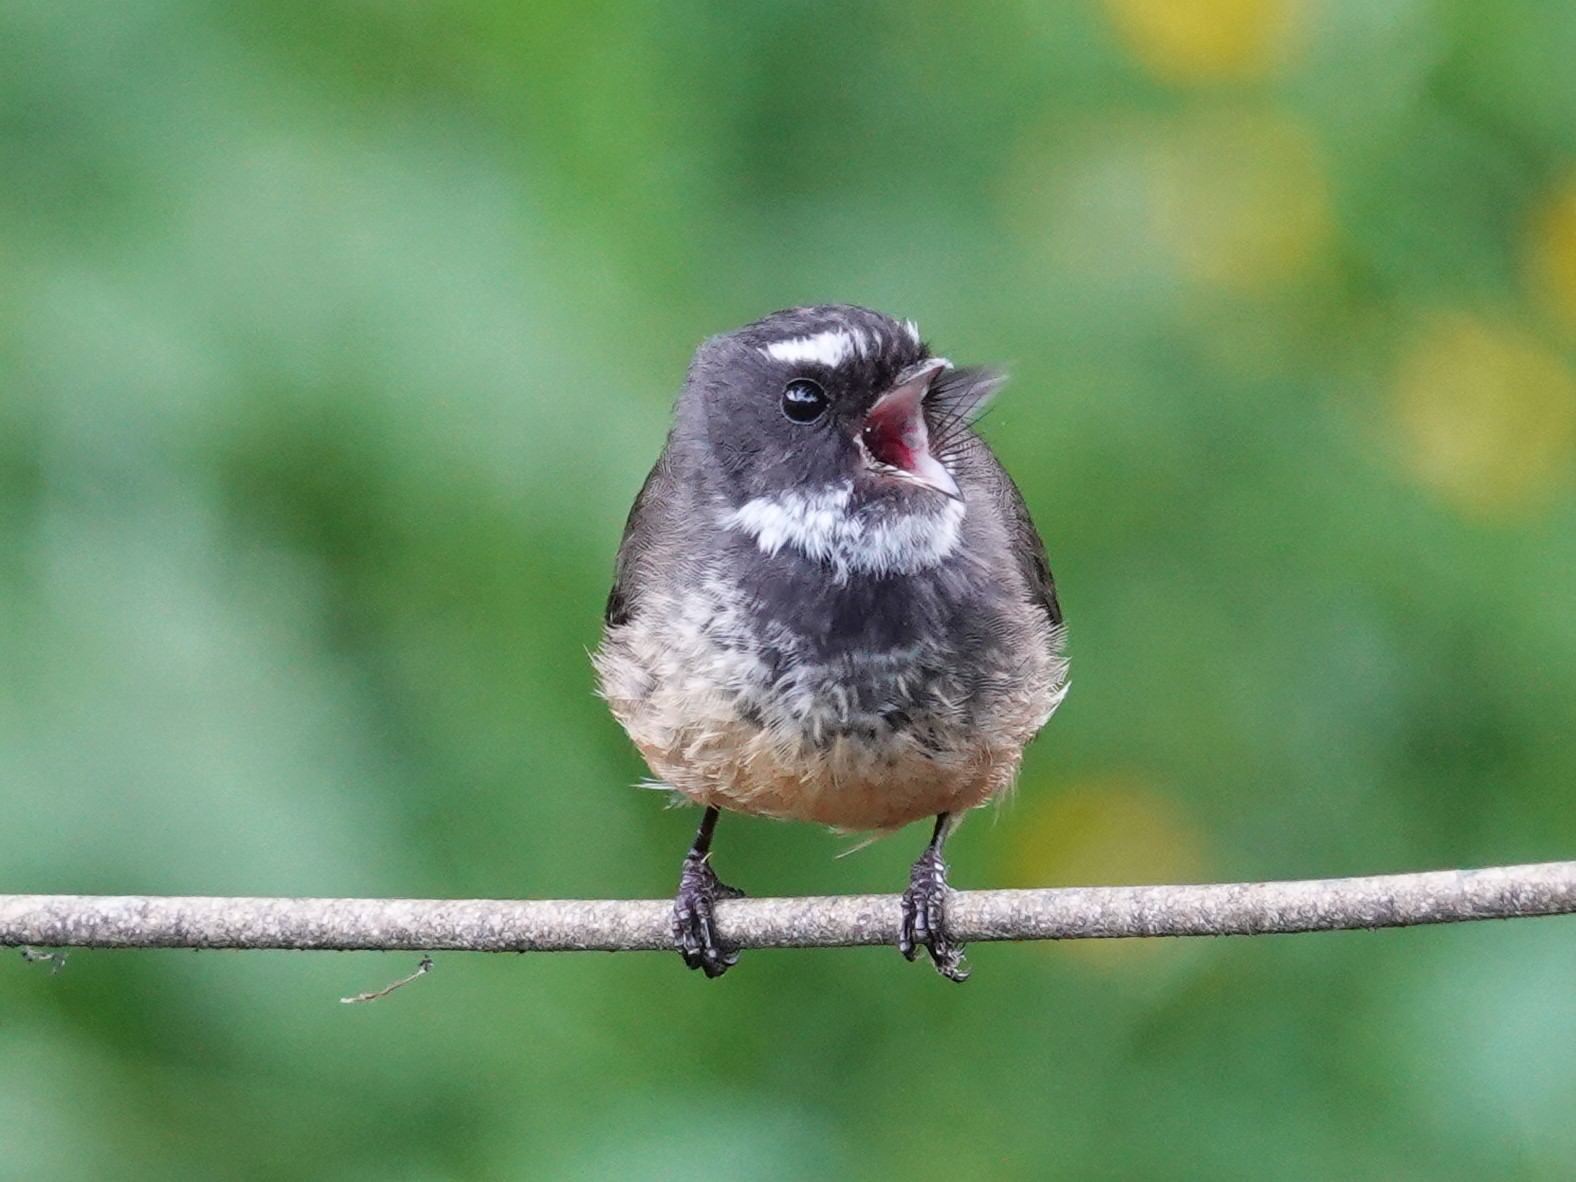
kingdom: Animalia
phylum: Chordata
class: Aves
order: Passeriformes
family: Rhipiduridae
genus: Rhipidura
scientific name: Rhipidura fuliginosa
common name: New zealand fantail
